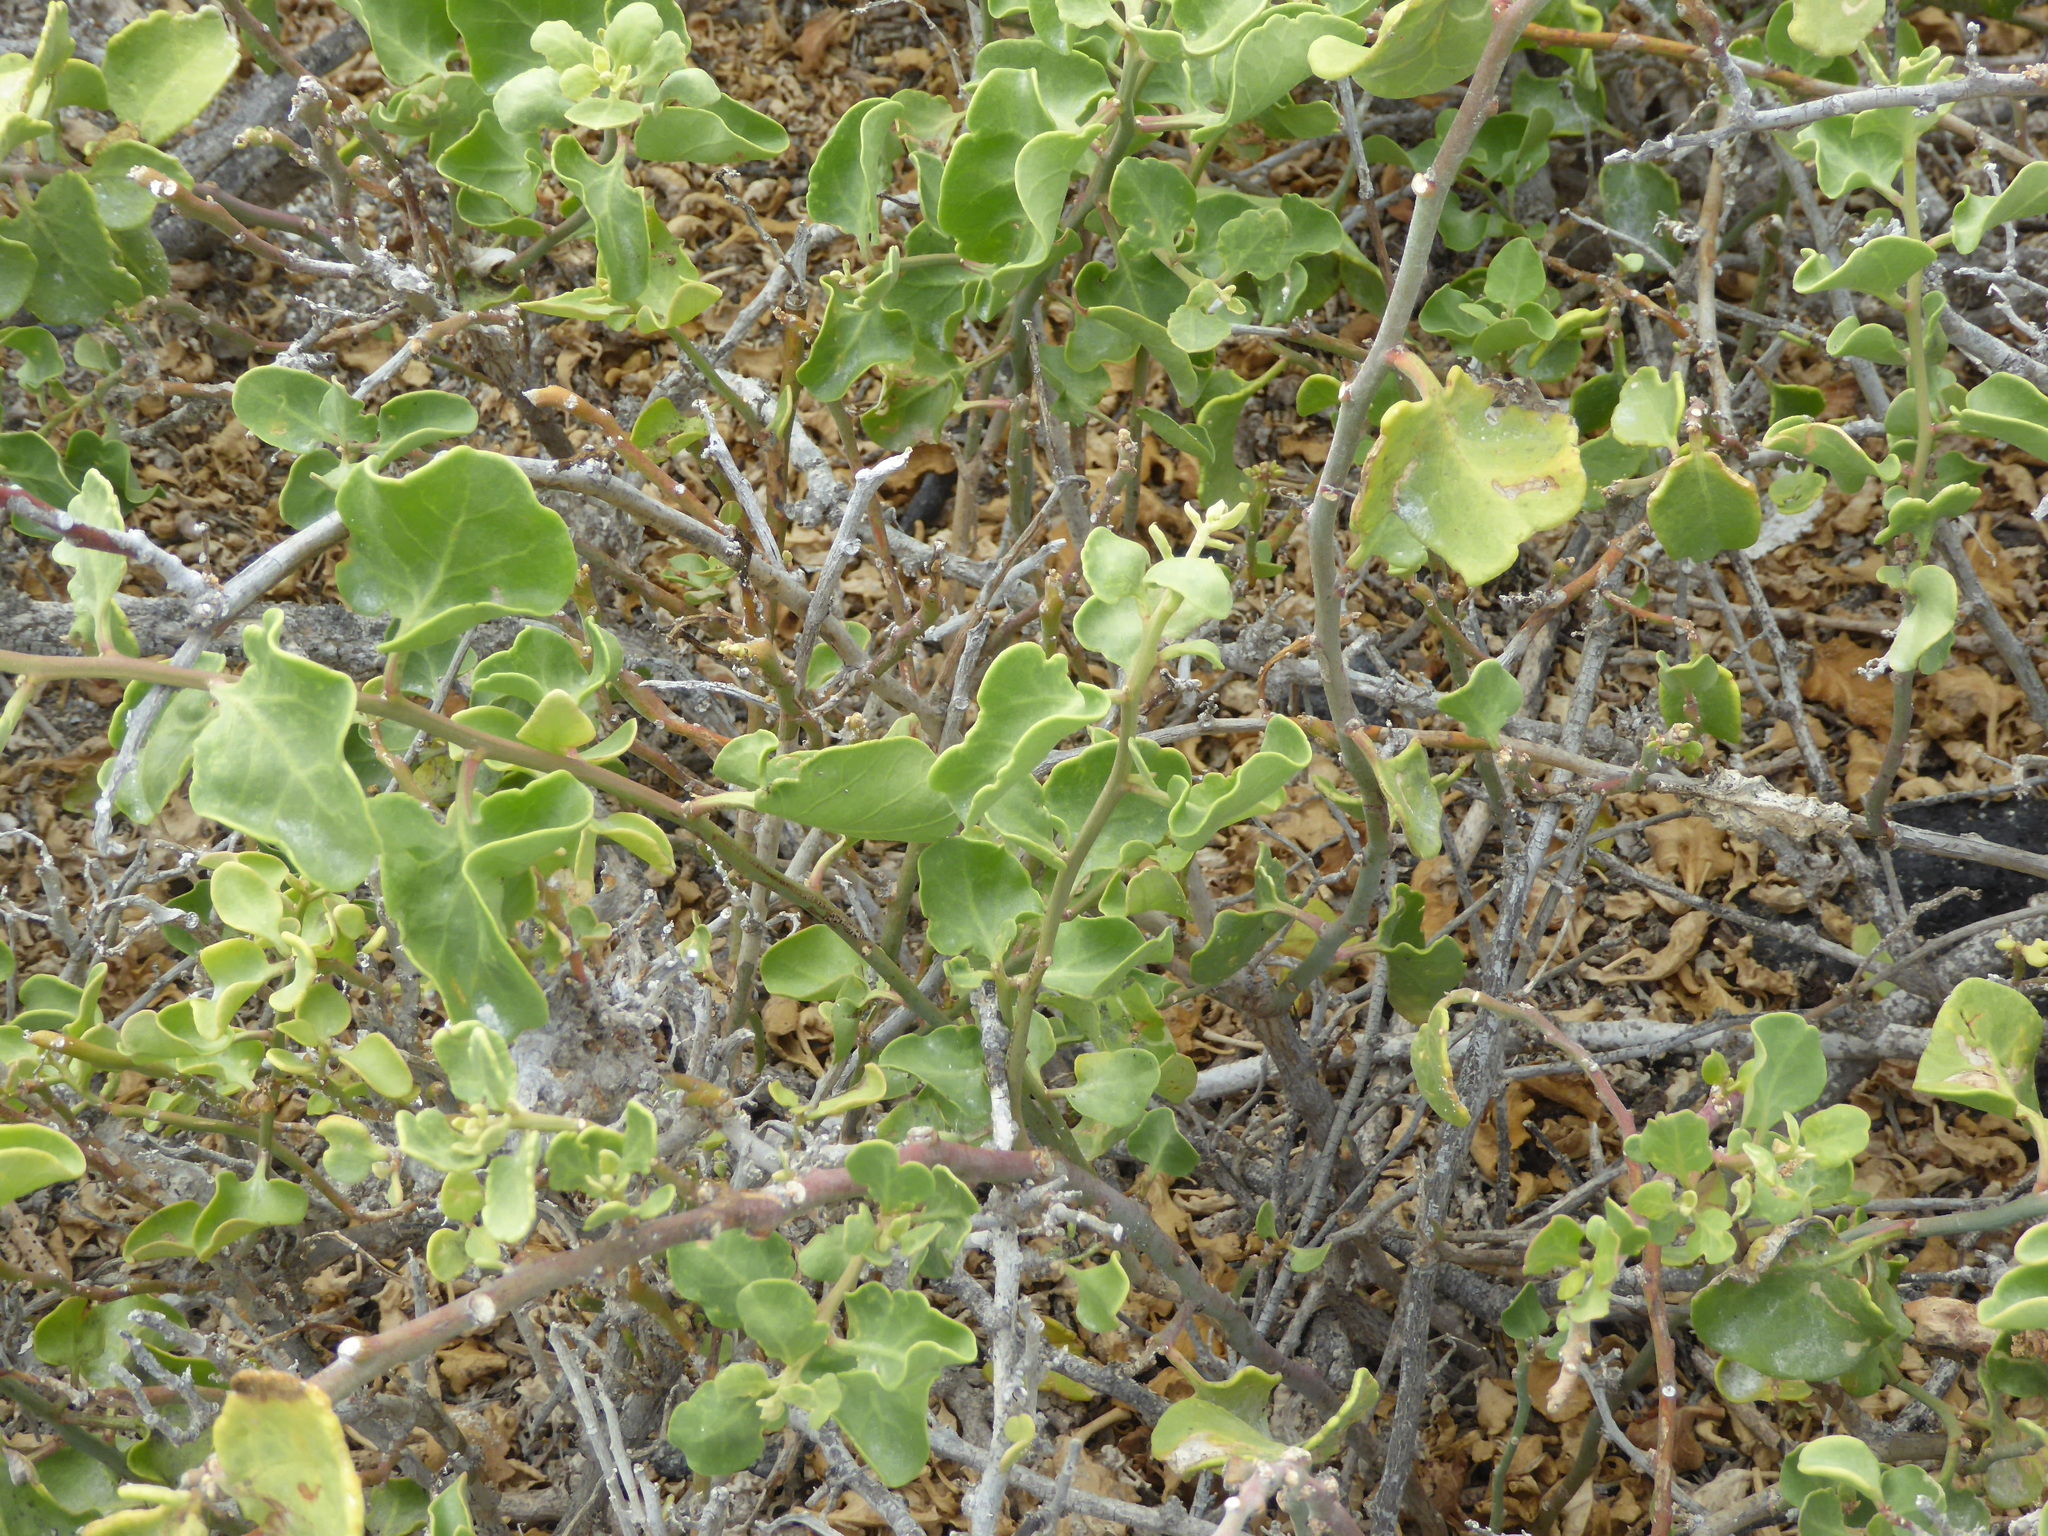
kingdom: Plantae
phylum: Tracheophyta
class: Magnoliopsida
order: Caryophyllales
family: Nyctaginaceae
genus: Cryptocarpus
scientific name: Cryptocarpus pyriformis
